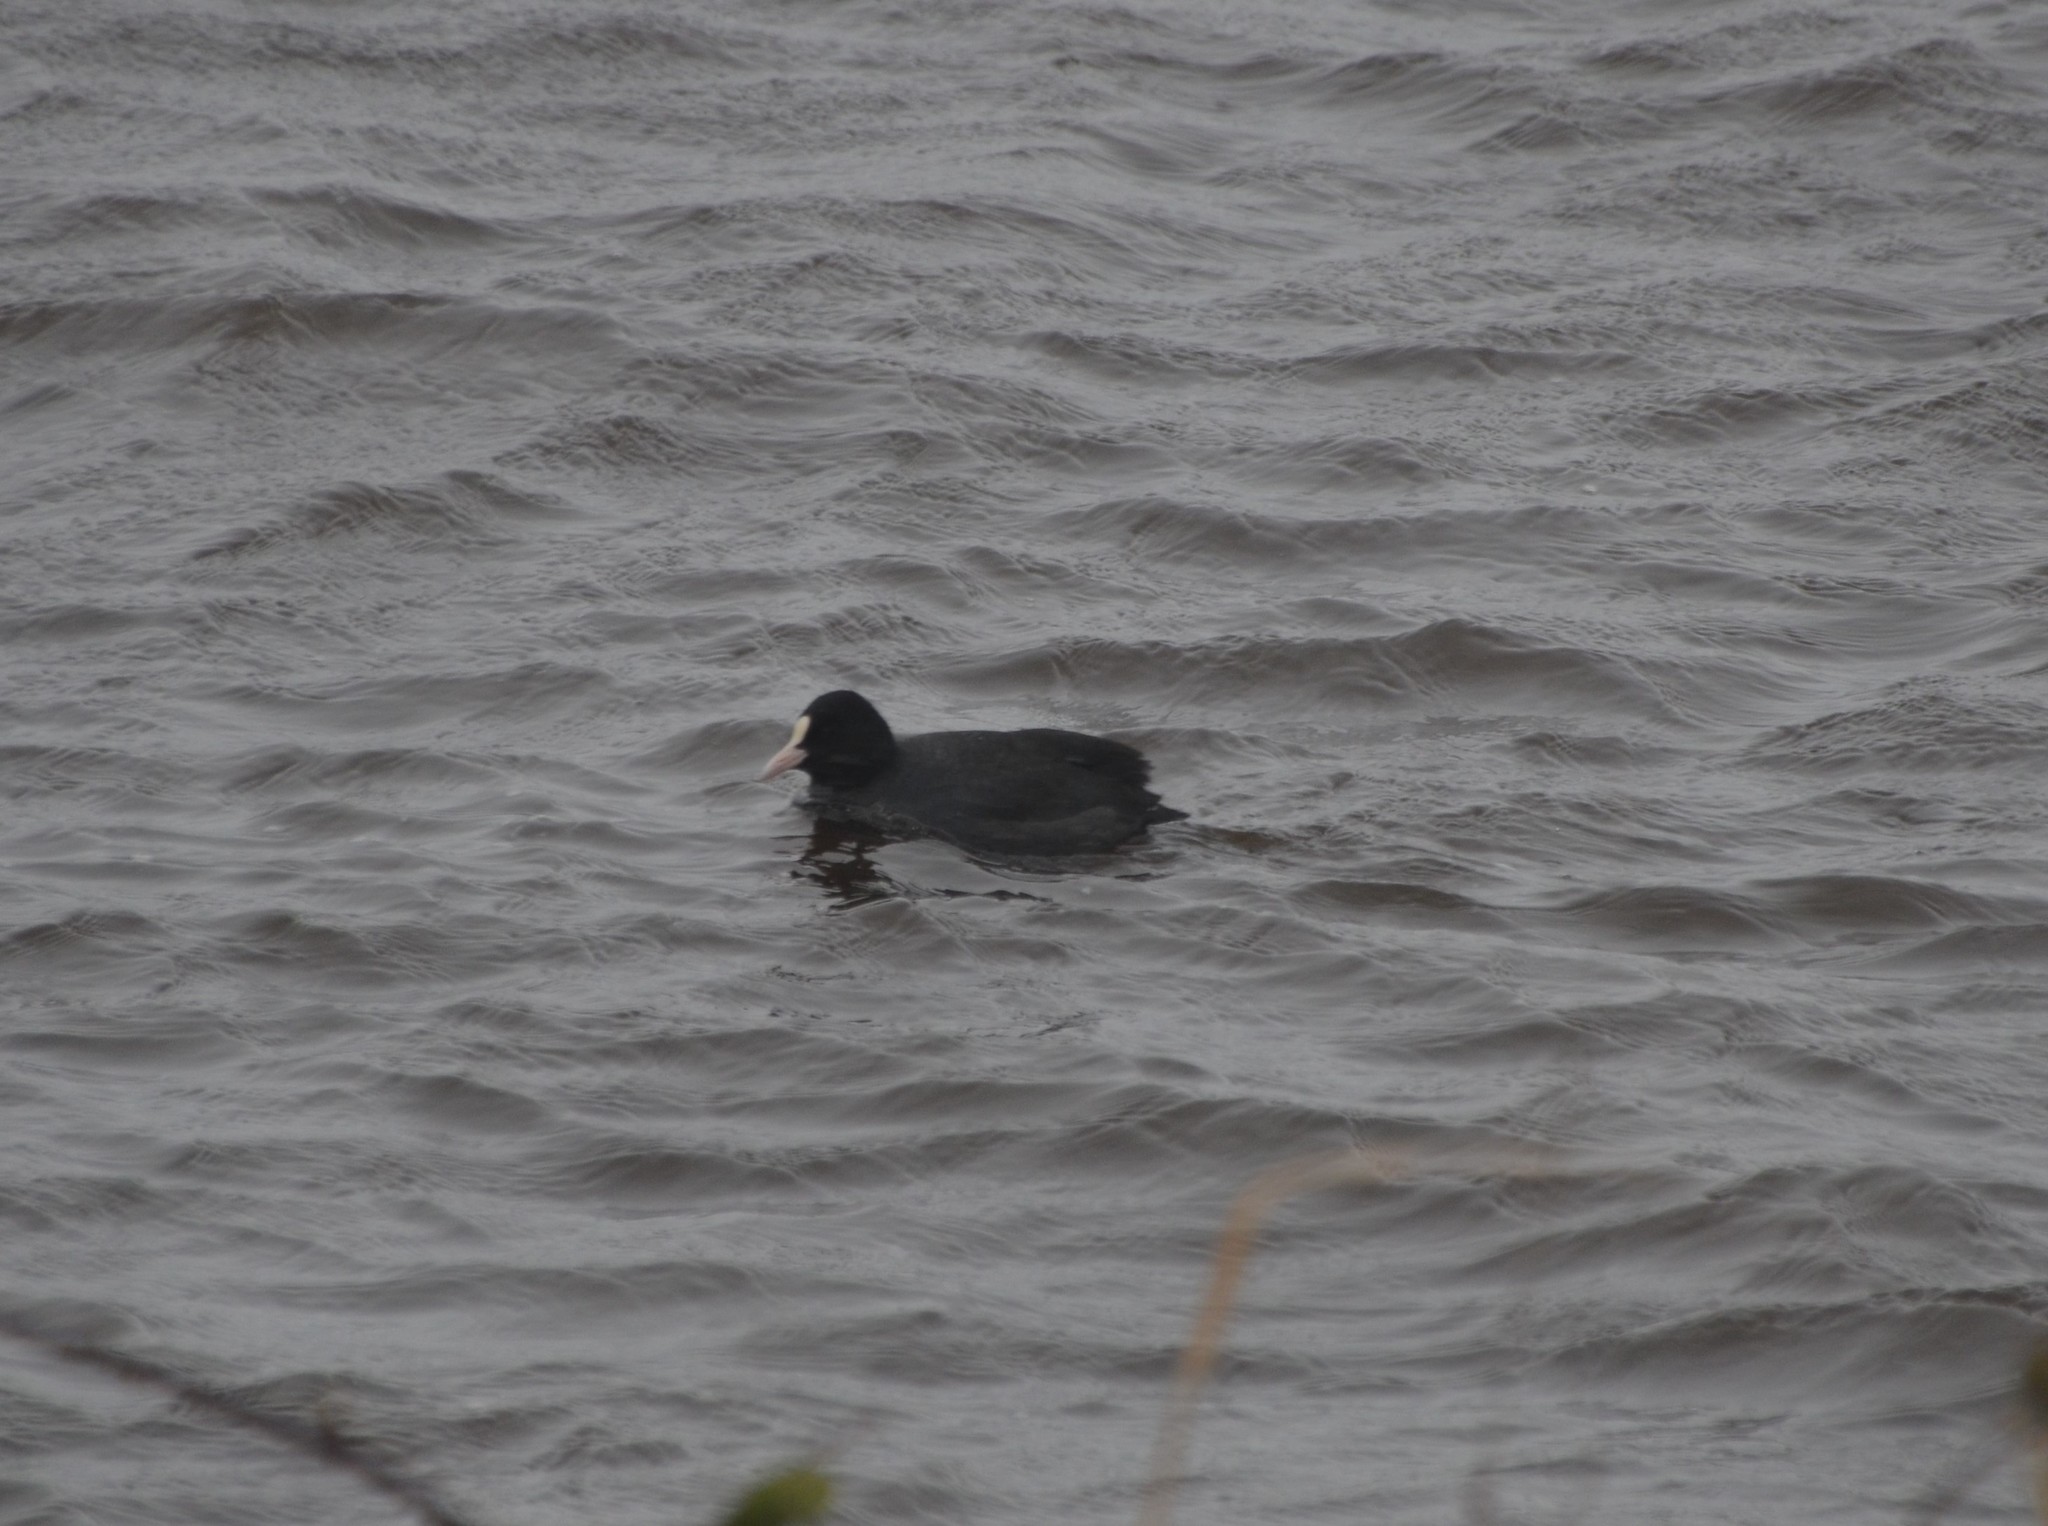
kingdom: Animalia
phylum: Chordata
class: Aves
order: Gruiformes
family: Rallidae
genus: Fulica
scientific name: Fulica atra
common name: Eurasian coot
